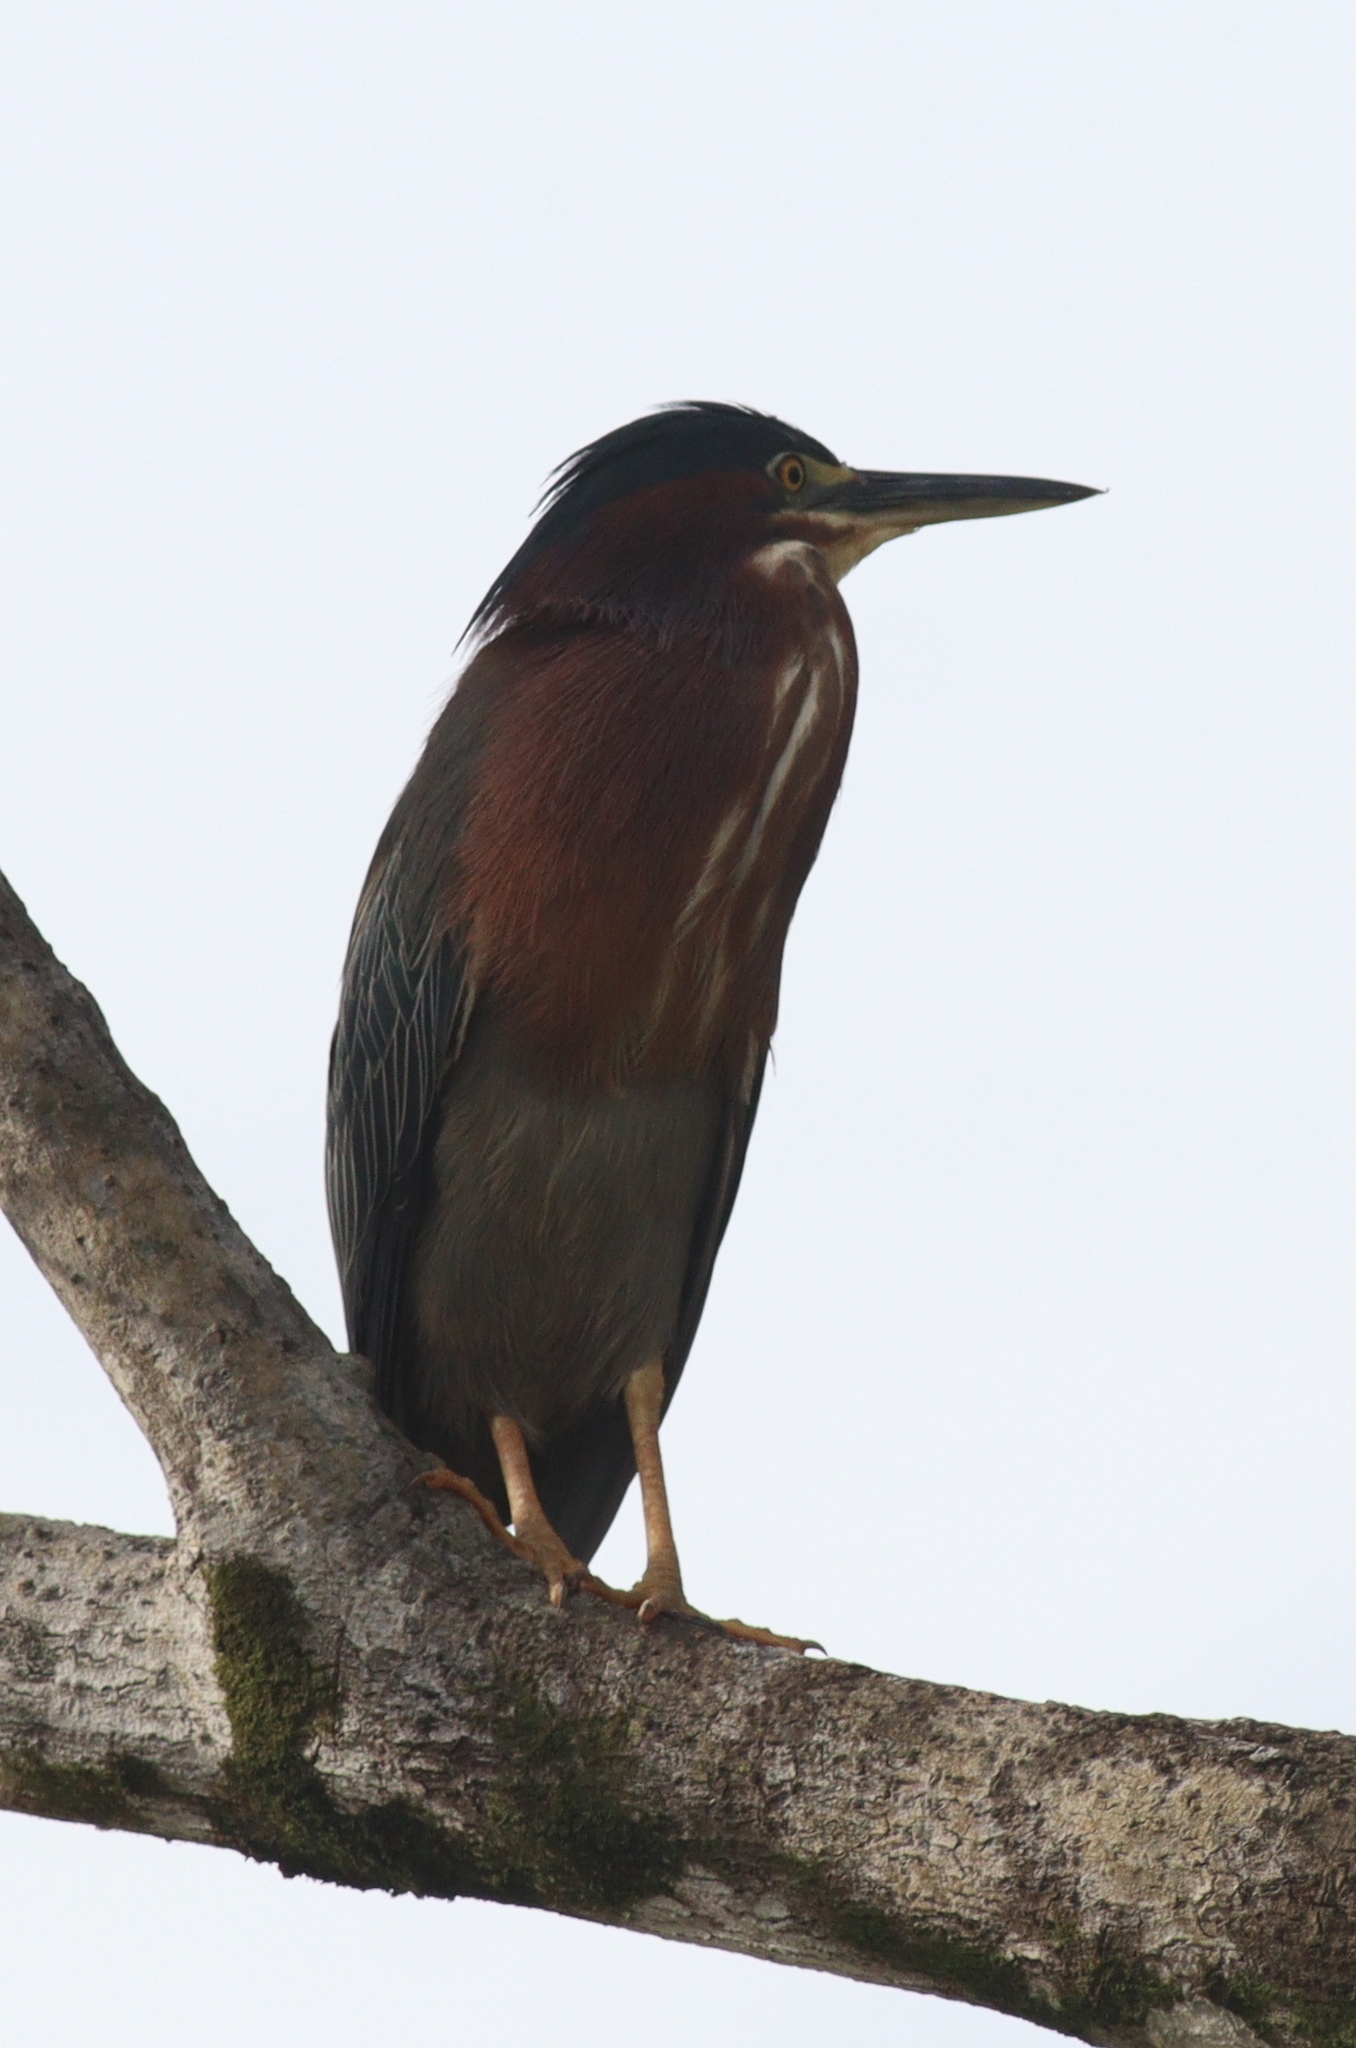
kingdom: Animalia
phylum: Chordata
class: Aves
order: Pelecaniformes
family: Ardeidae
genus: Butorides
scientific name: Butorides virescens
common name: Green heron
